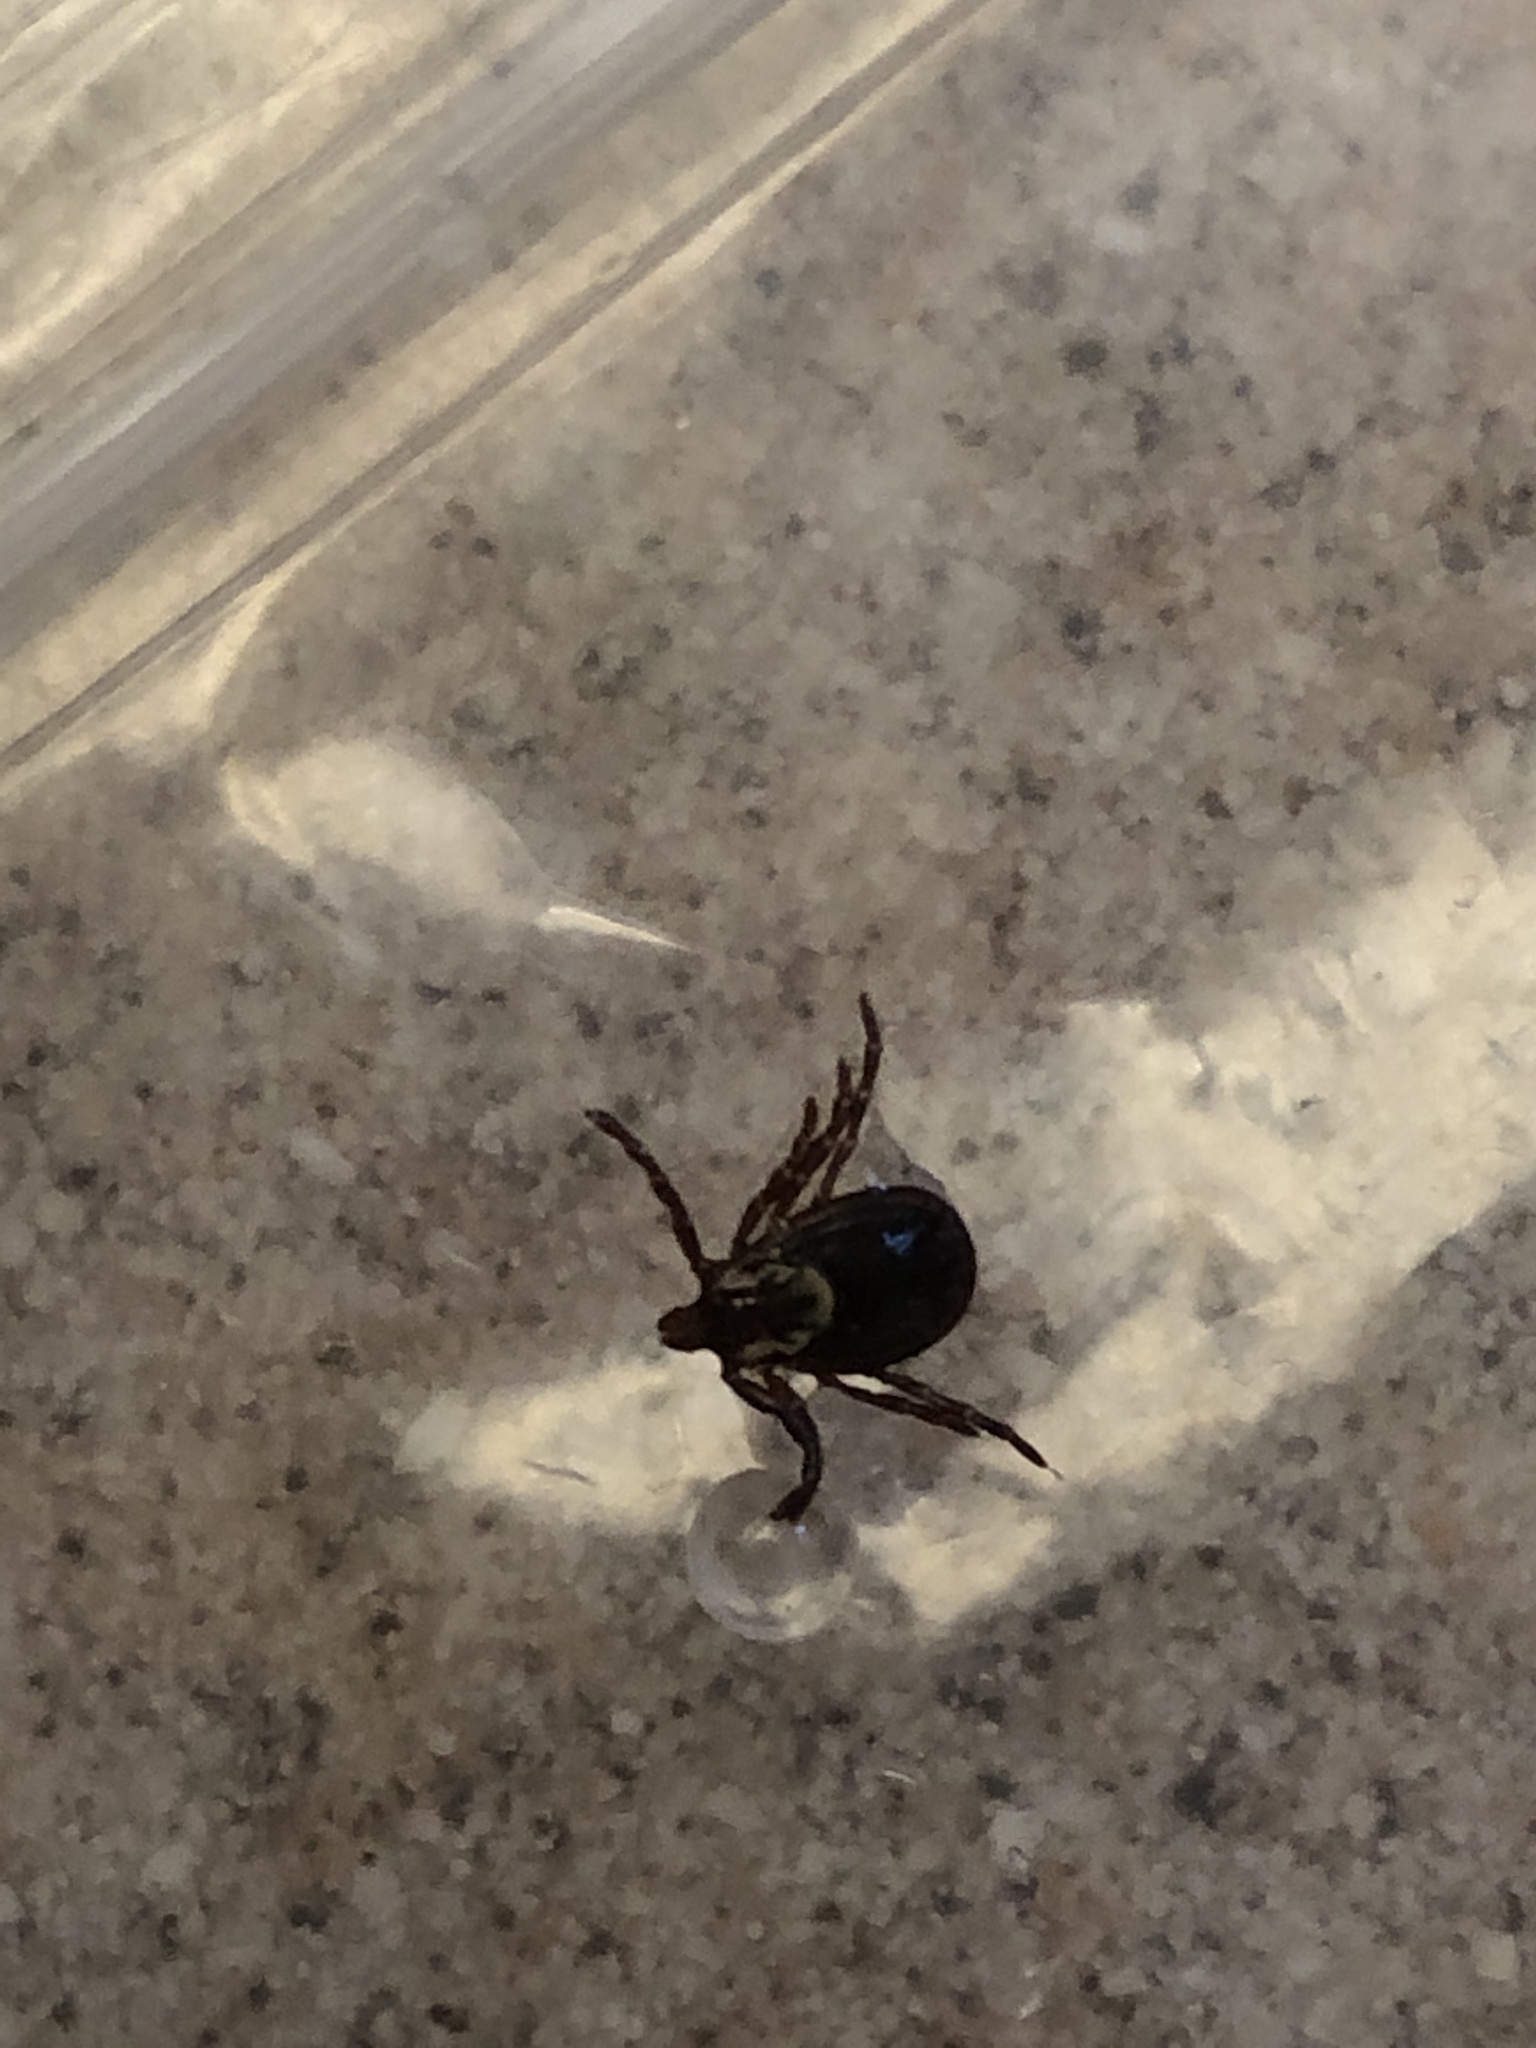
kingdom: Animalia
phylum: Arthropoda
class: Arachnida
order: Ixodida
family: Ixodidae
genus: Dermacentor
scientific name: Dermacentor variabilis
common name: American dog tick
